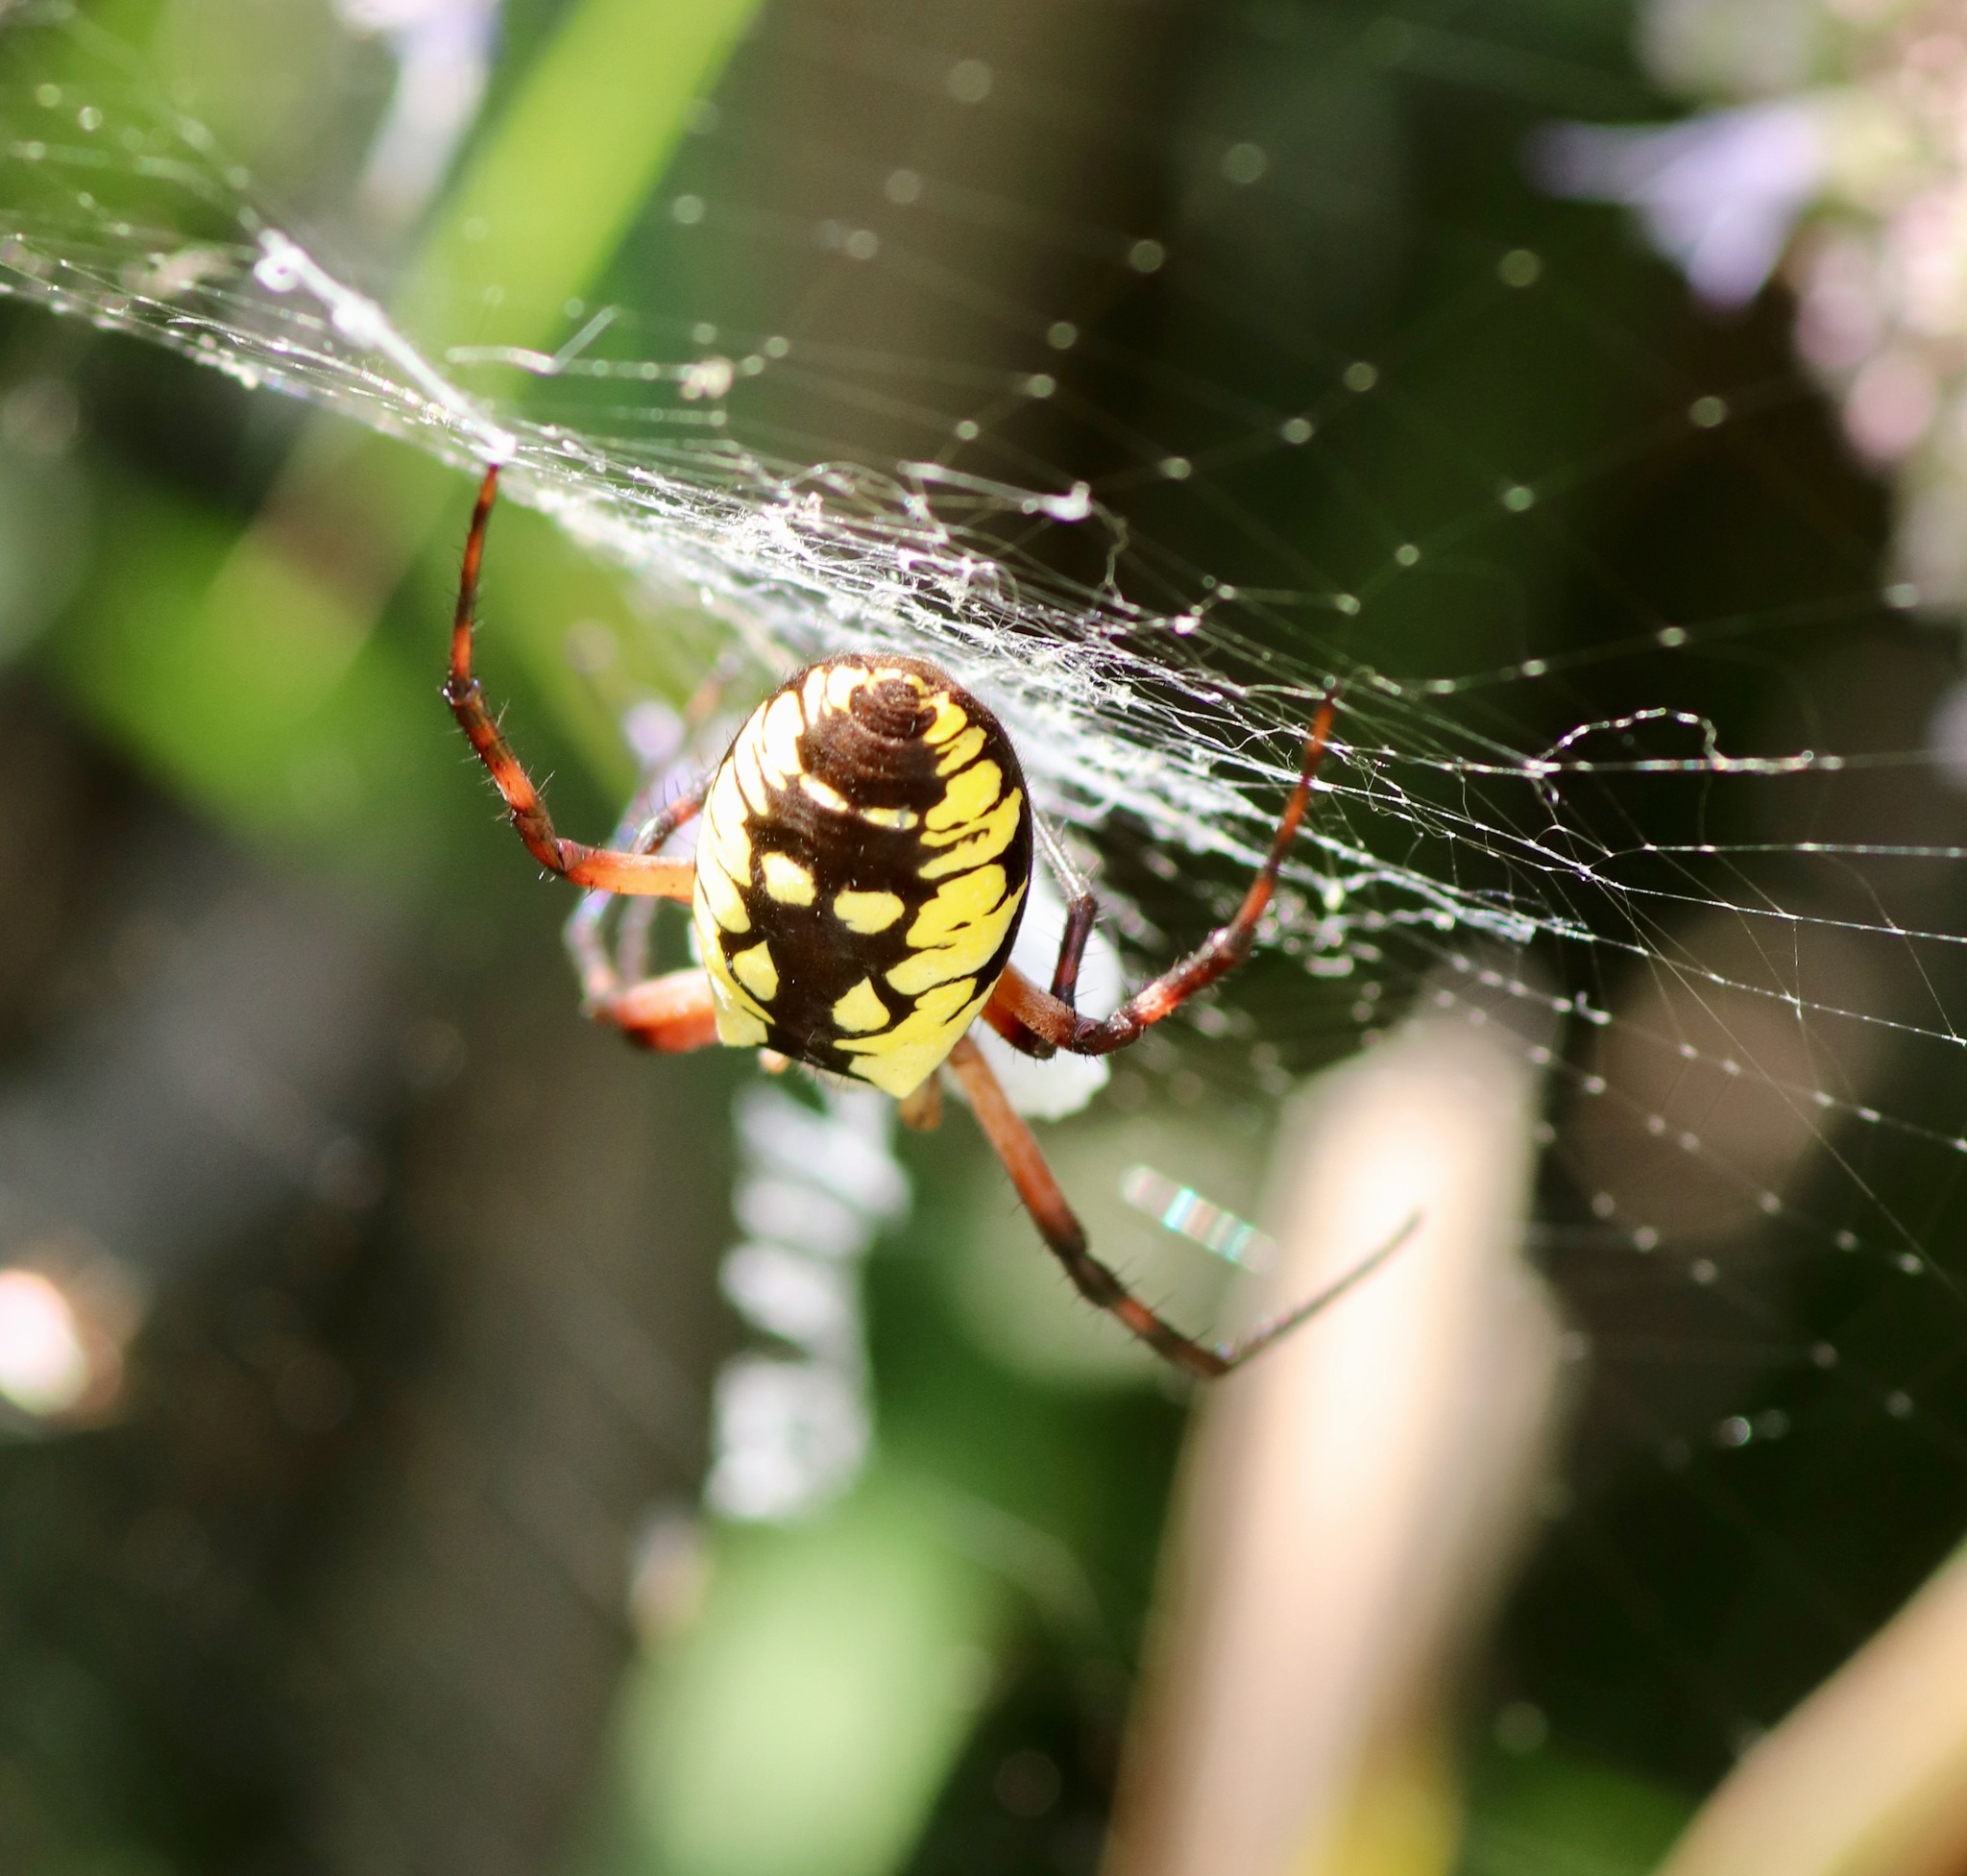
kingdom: Animalia
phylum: Arthropoda
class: Arachnida
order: Araneae
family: Araneidae
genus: Argiope
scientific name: Argiope aurantia
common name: Orb weavers
